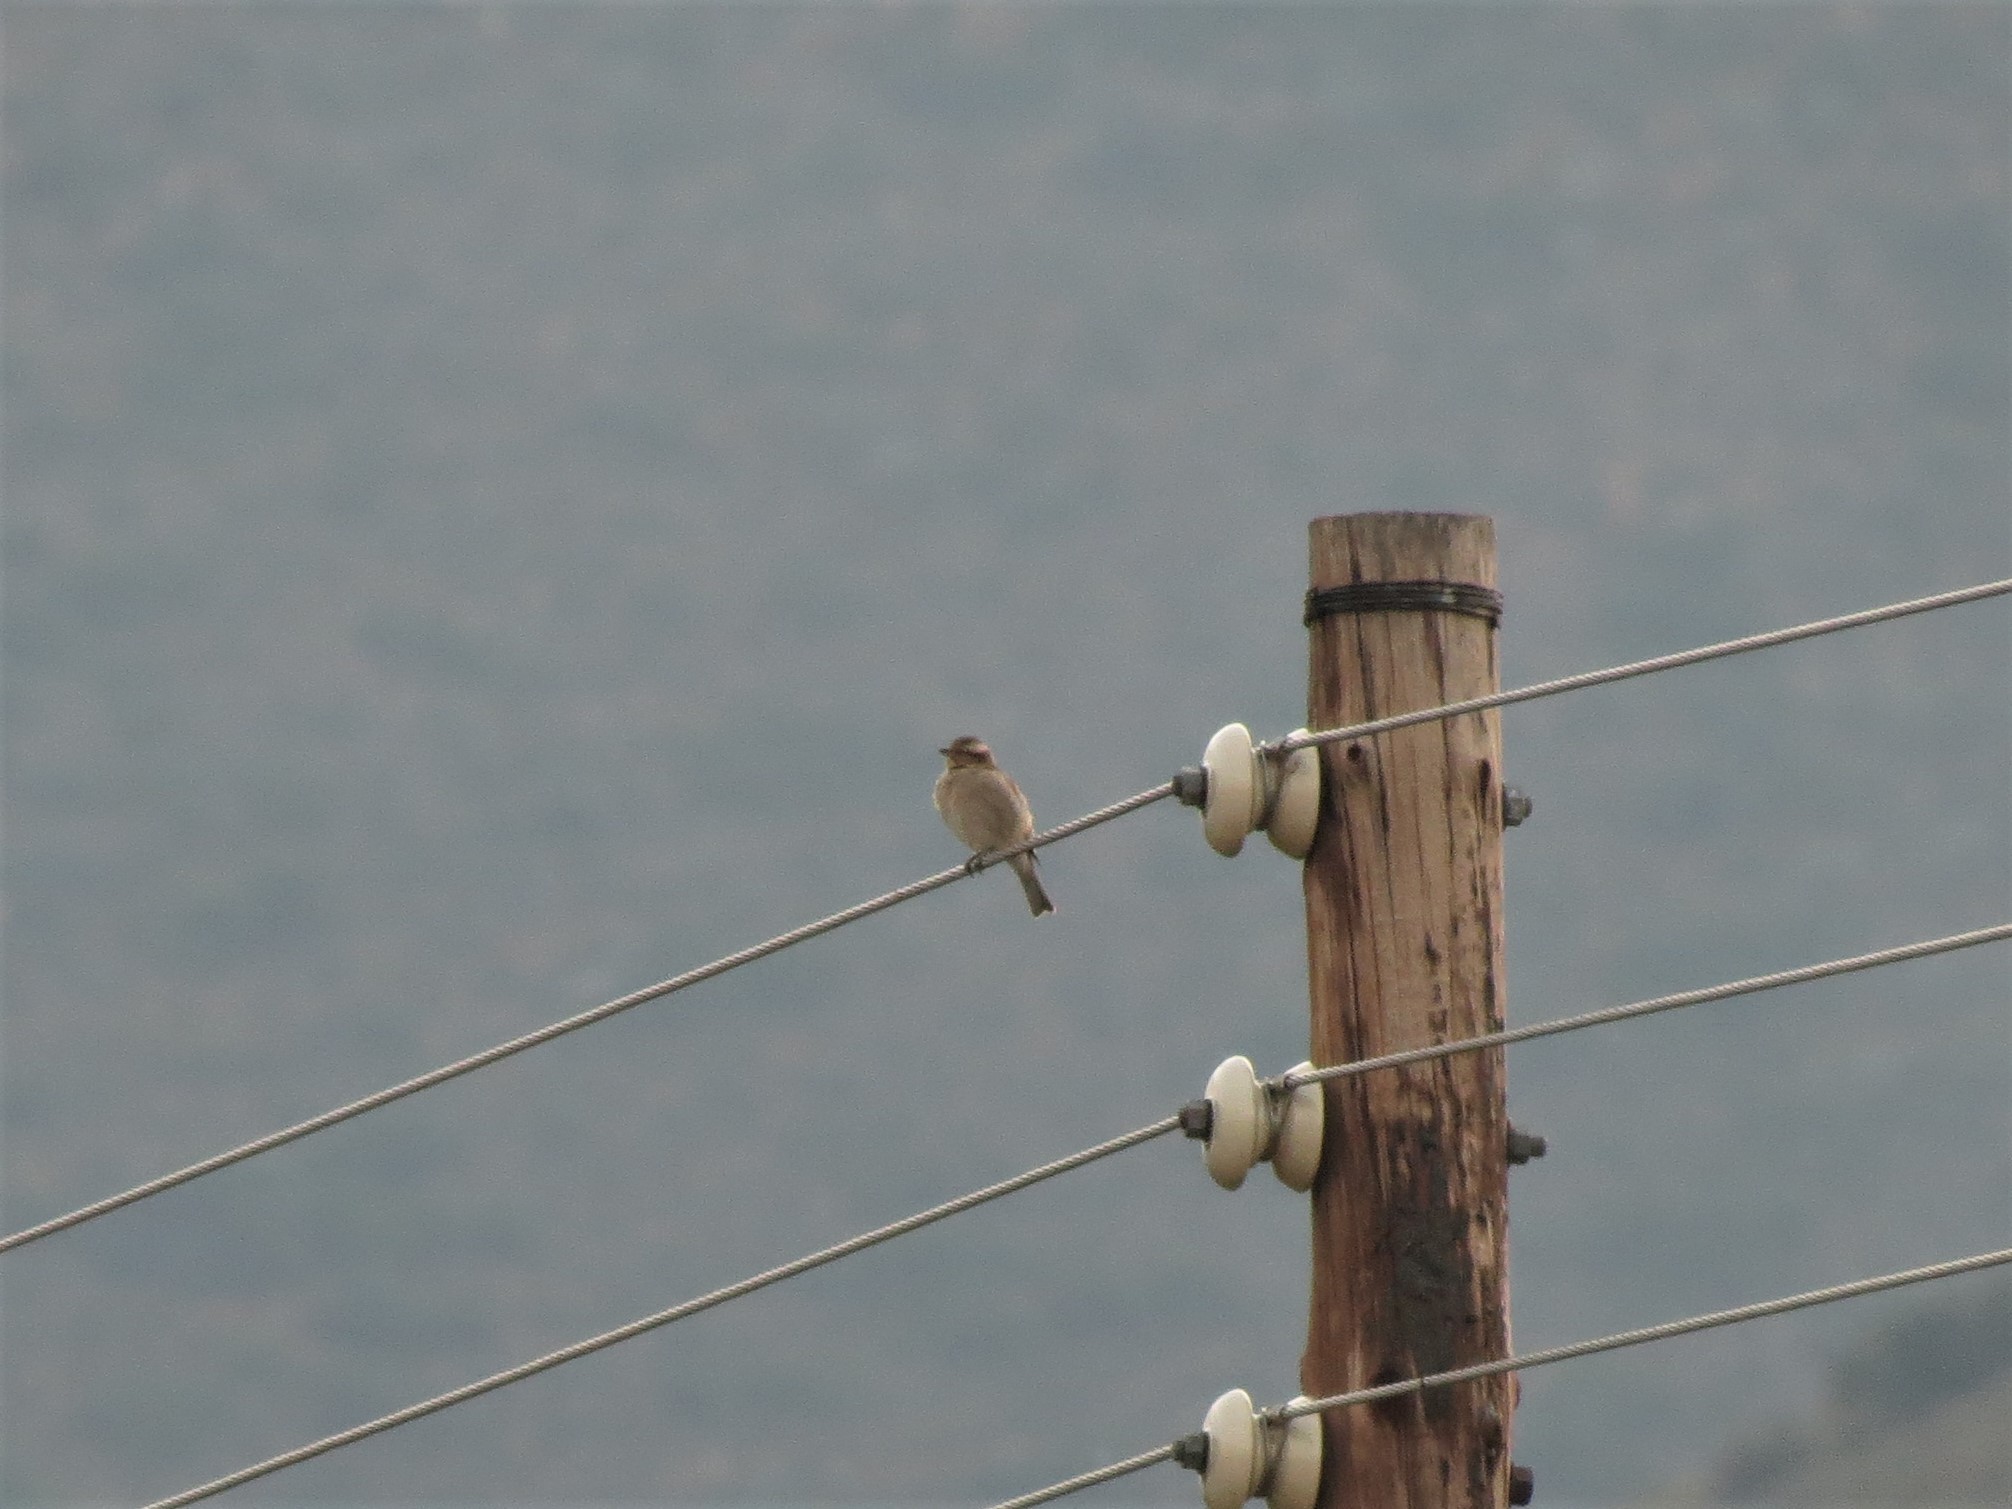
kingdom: Animalia
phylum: Chordata
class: Aves
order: Passeriformes
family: Passeridae
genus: Gymnoris
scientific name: Gymnoris superciliaris
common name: Yellow-throated petronia
